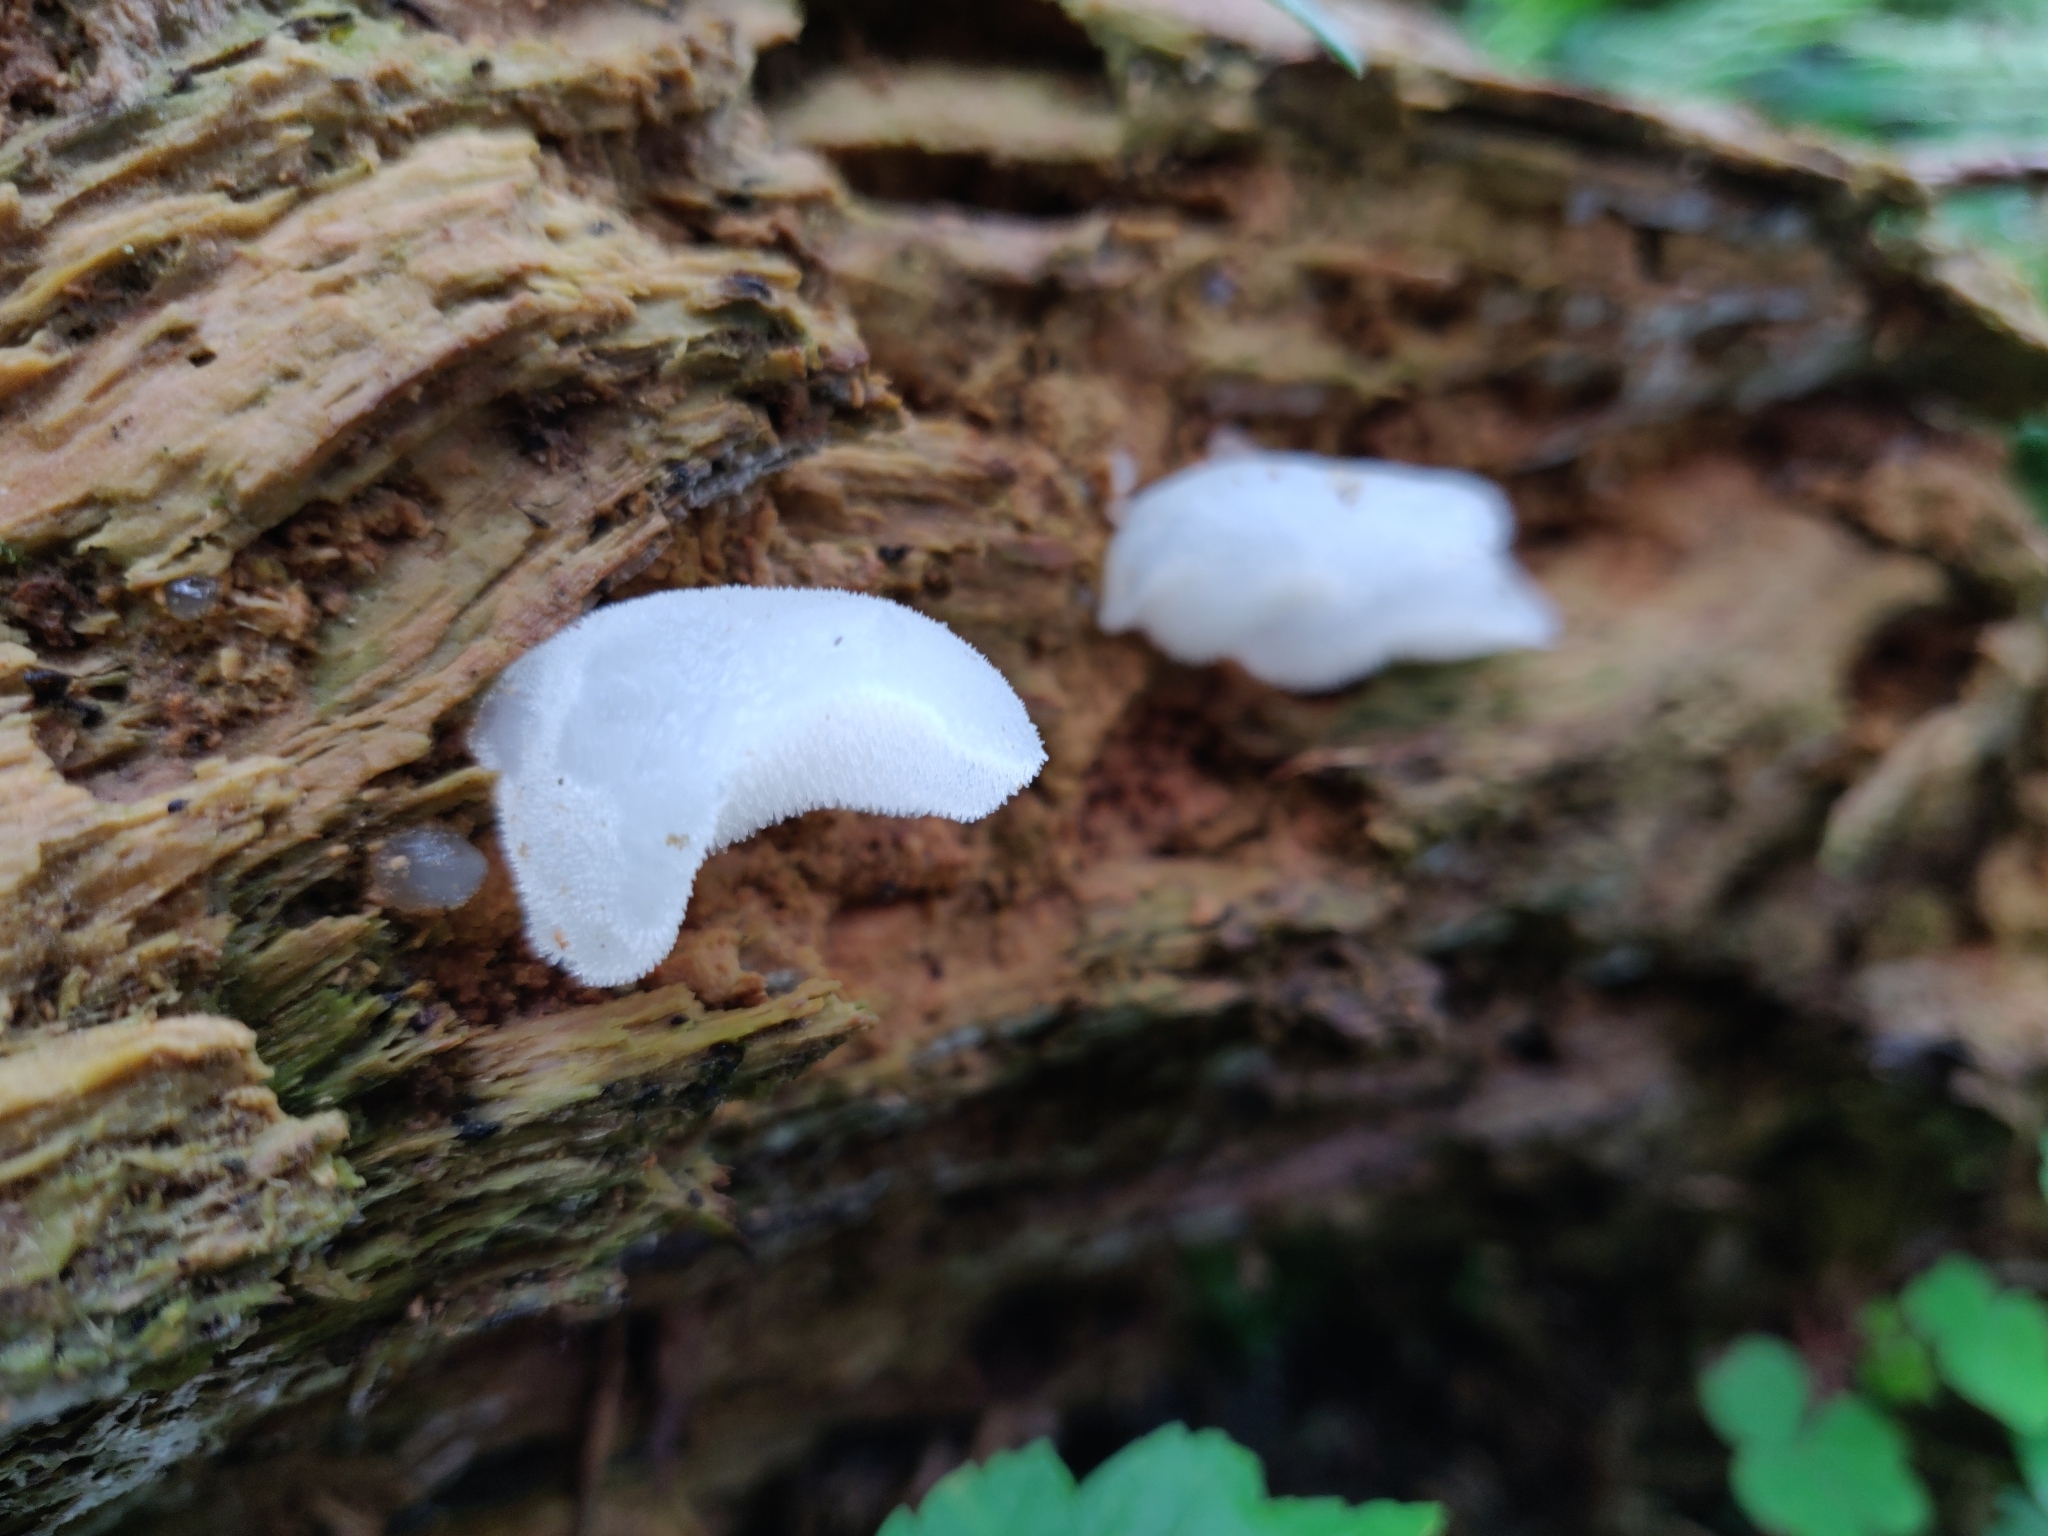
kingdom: Fungi
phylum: Basidiomycota
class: Agaricomycetes
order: Auriculariales
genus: Pseudohydnum
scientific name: Pseudohydnum gelatinosum
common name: Jelly tongue
